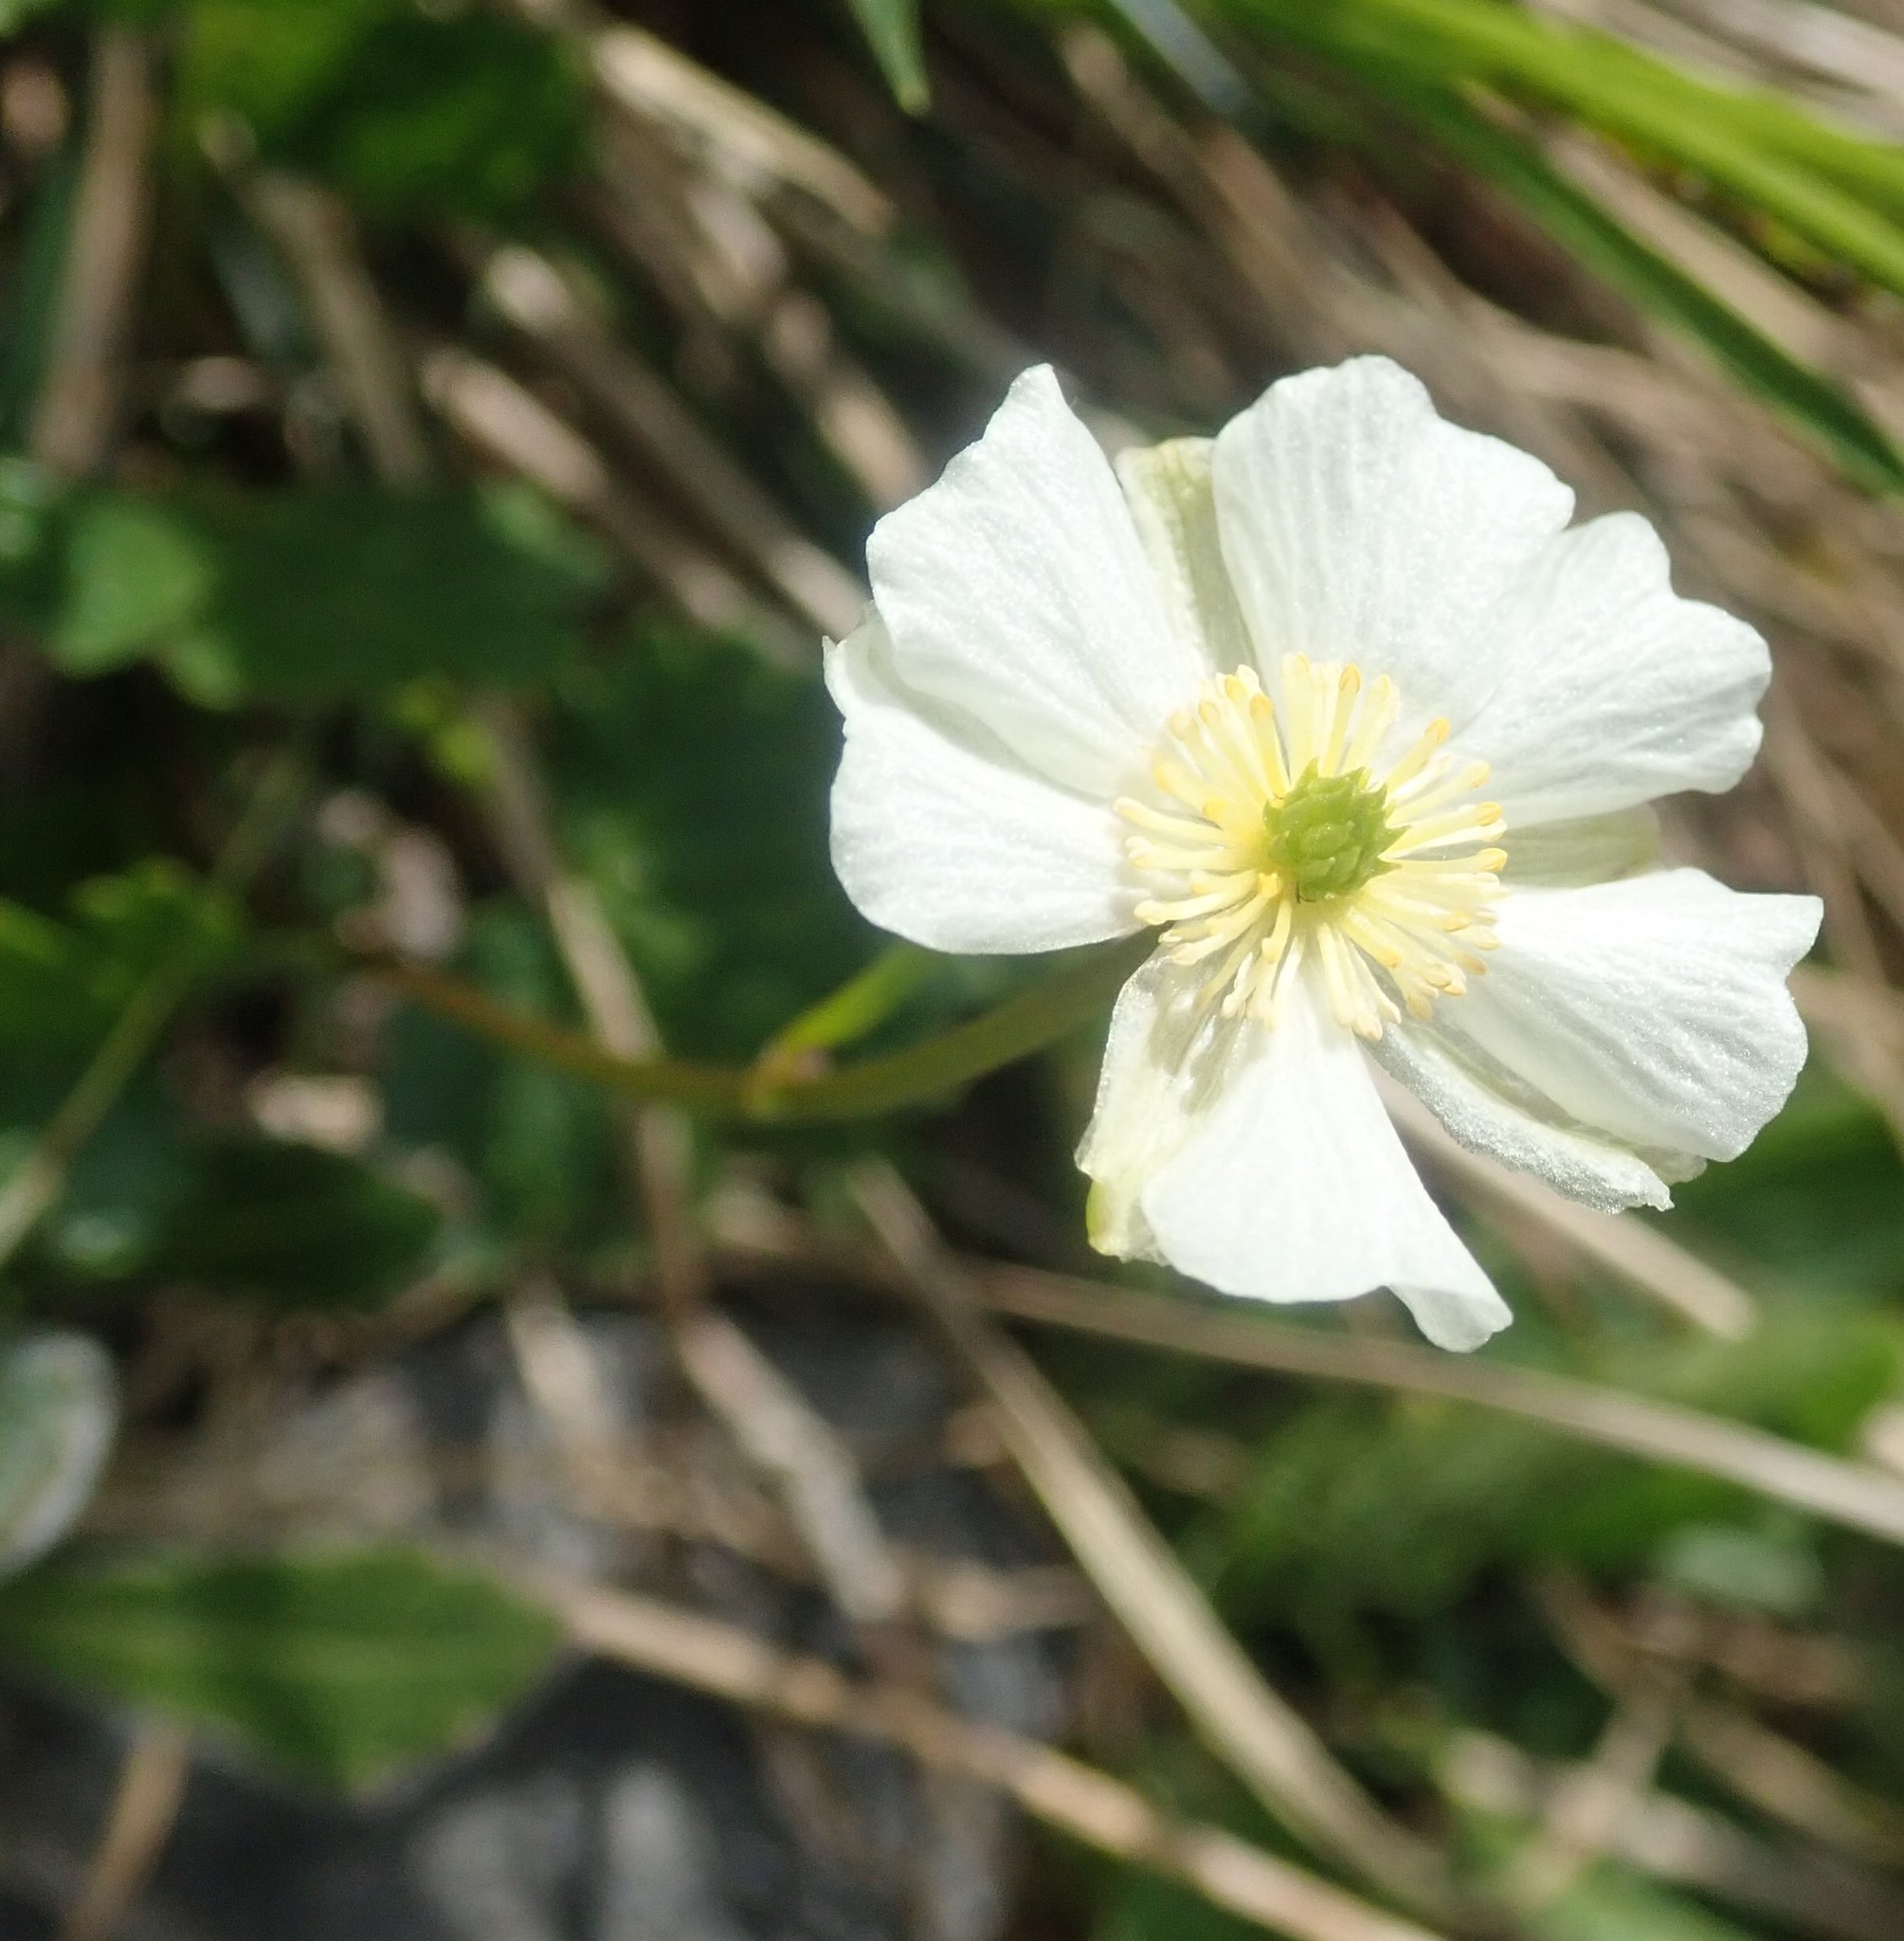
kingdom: Plantae
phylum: Tracheophyta
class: Magnoliopsida
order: Ranunculales
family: Ranunculaceae
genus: Ranunculus
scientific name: Ranunculus alpestris
